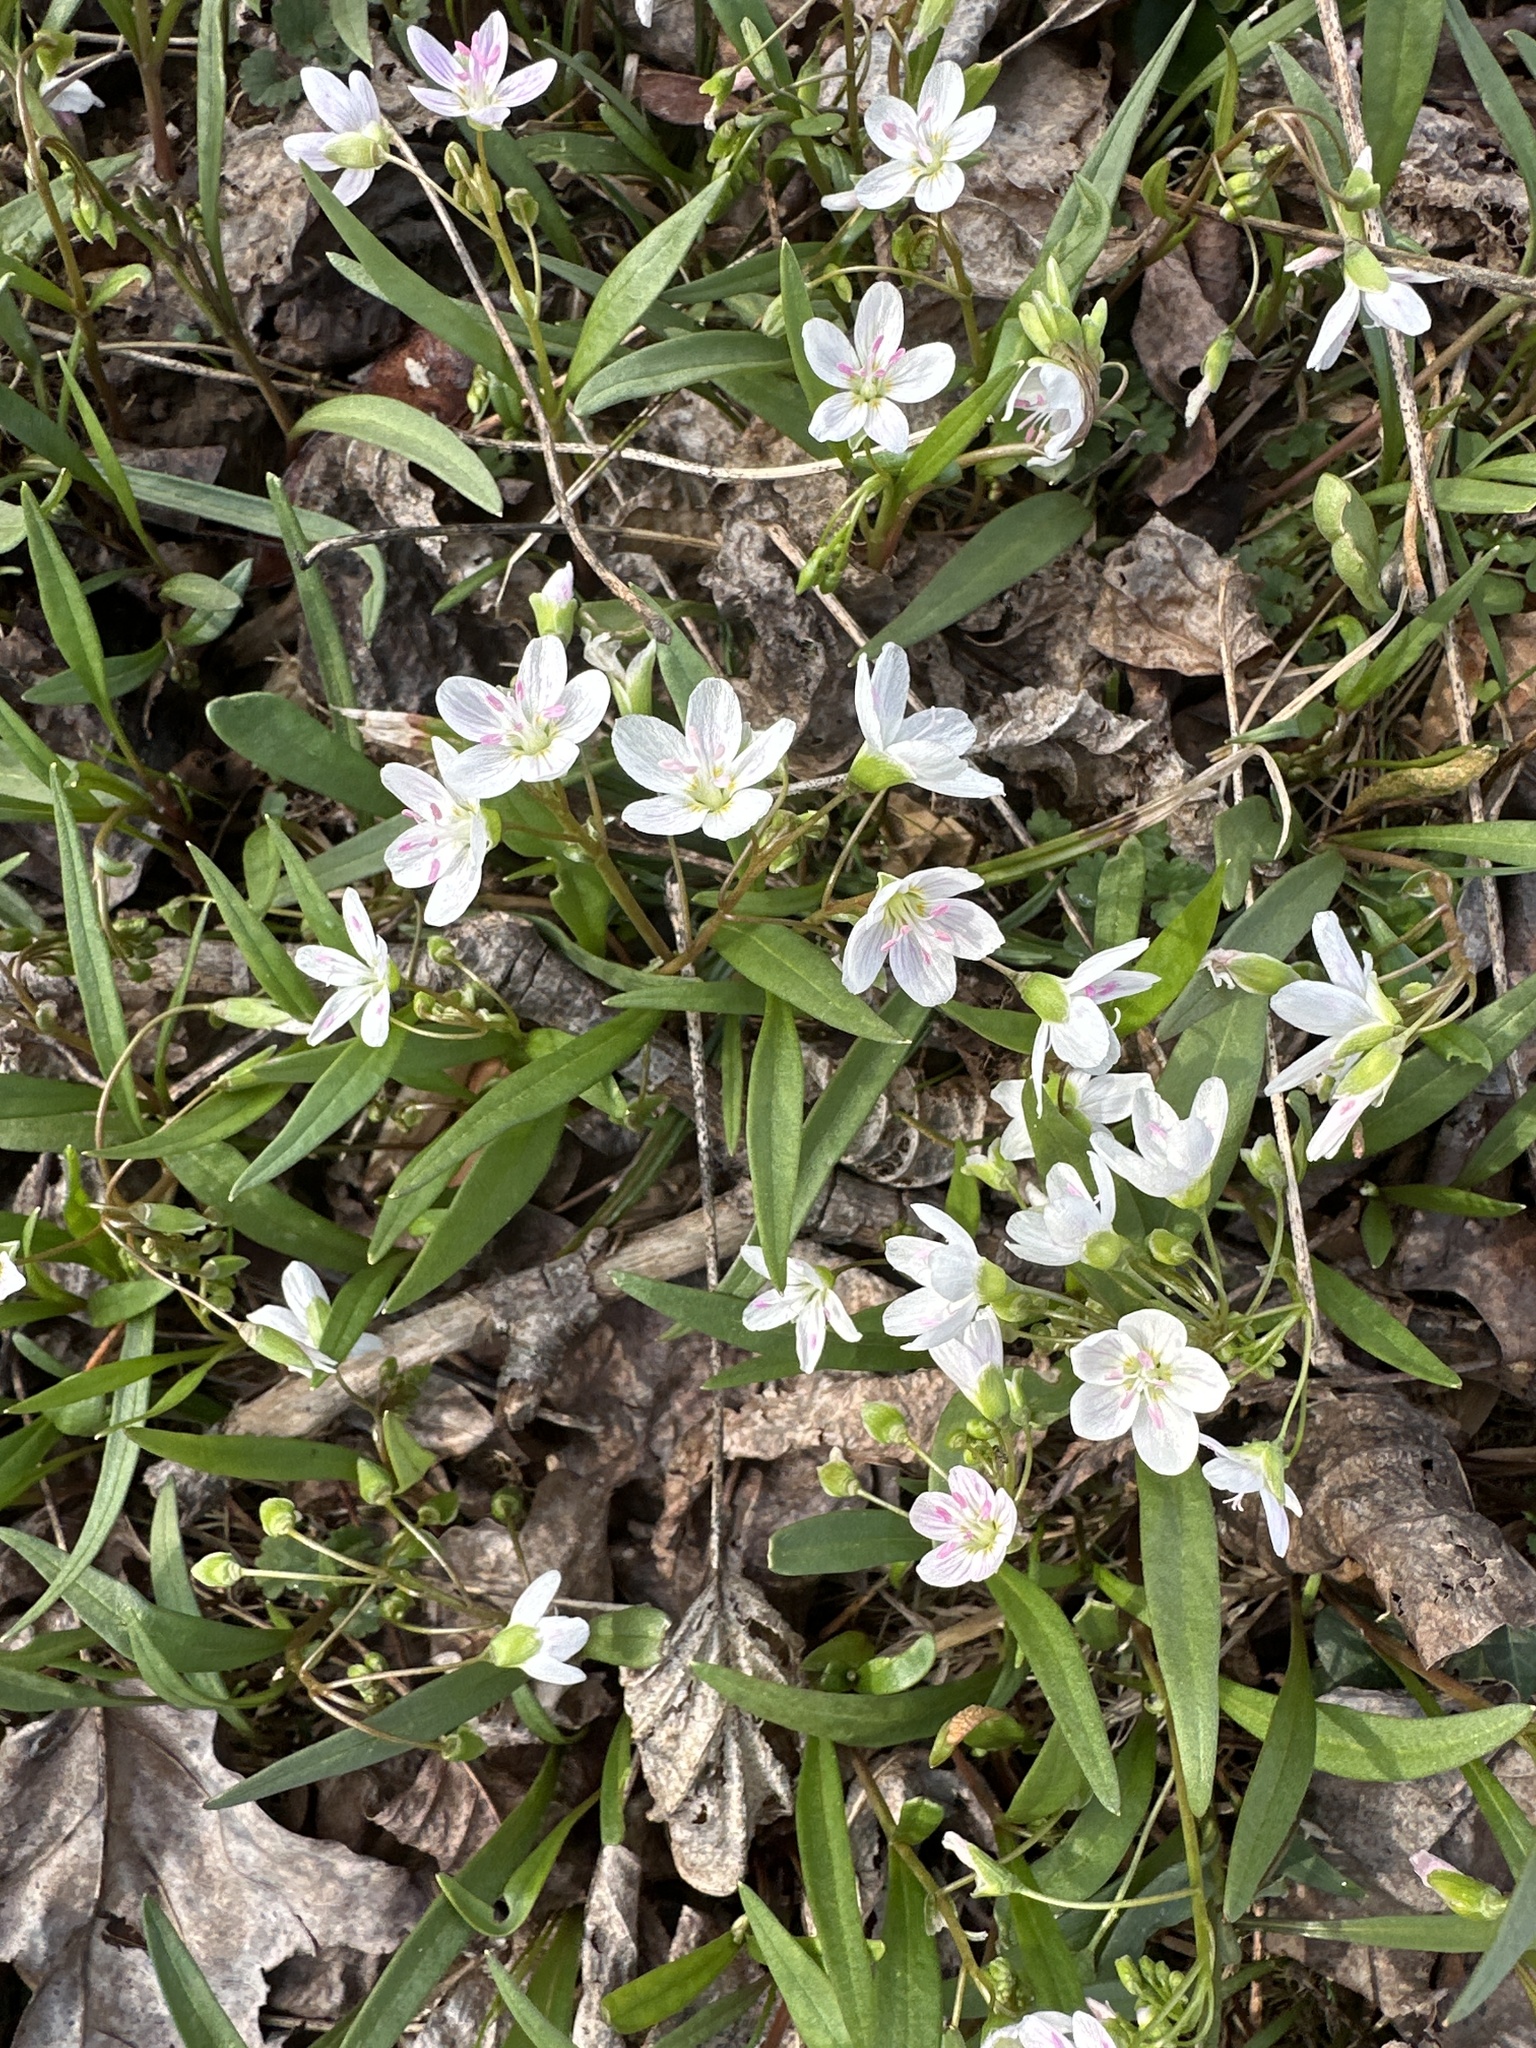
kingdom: Plantae
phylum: Tracheophyta
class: Magnoliopsida
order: Caryophyllales
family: Montiaceae
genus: Claytonia
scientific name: Claytonia virginica
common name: Virginia springbeauty
